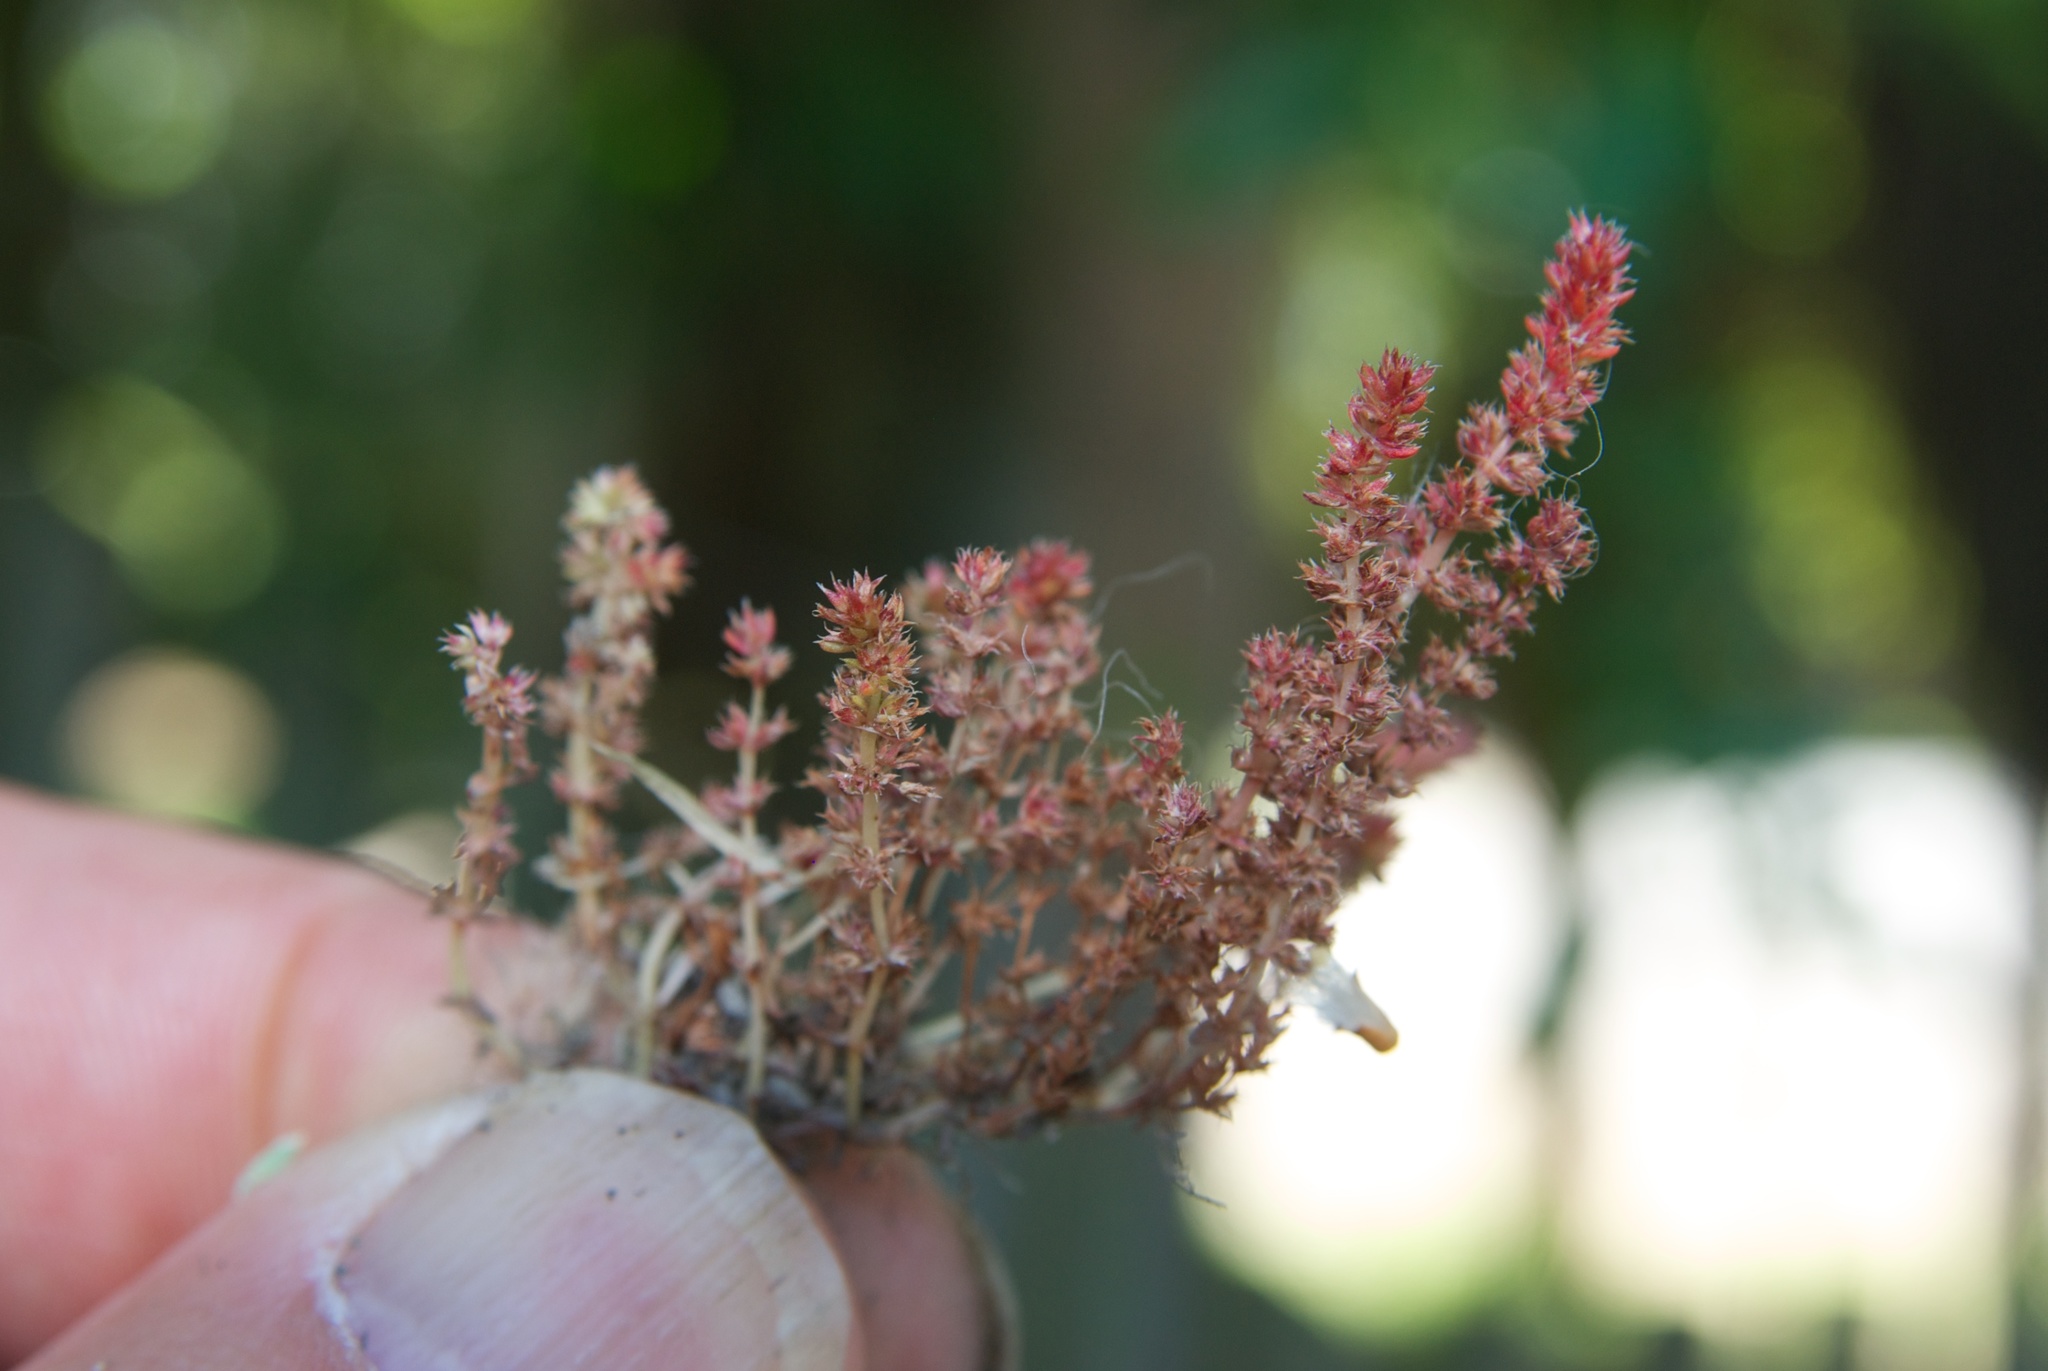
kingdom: Plantae
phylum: Tracheophyta
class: Magnoliopsida
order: Saxifragales
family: Crassulaceae
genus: Crassula
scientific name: Crassula sieberiana
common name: Siberian pygmyweed
